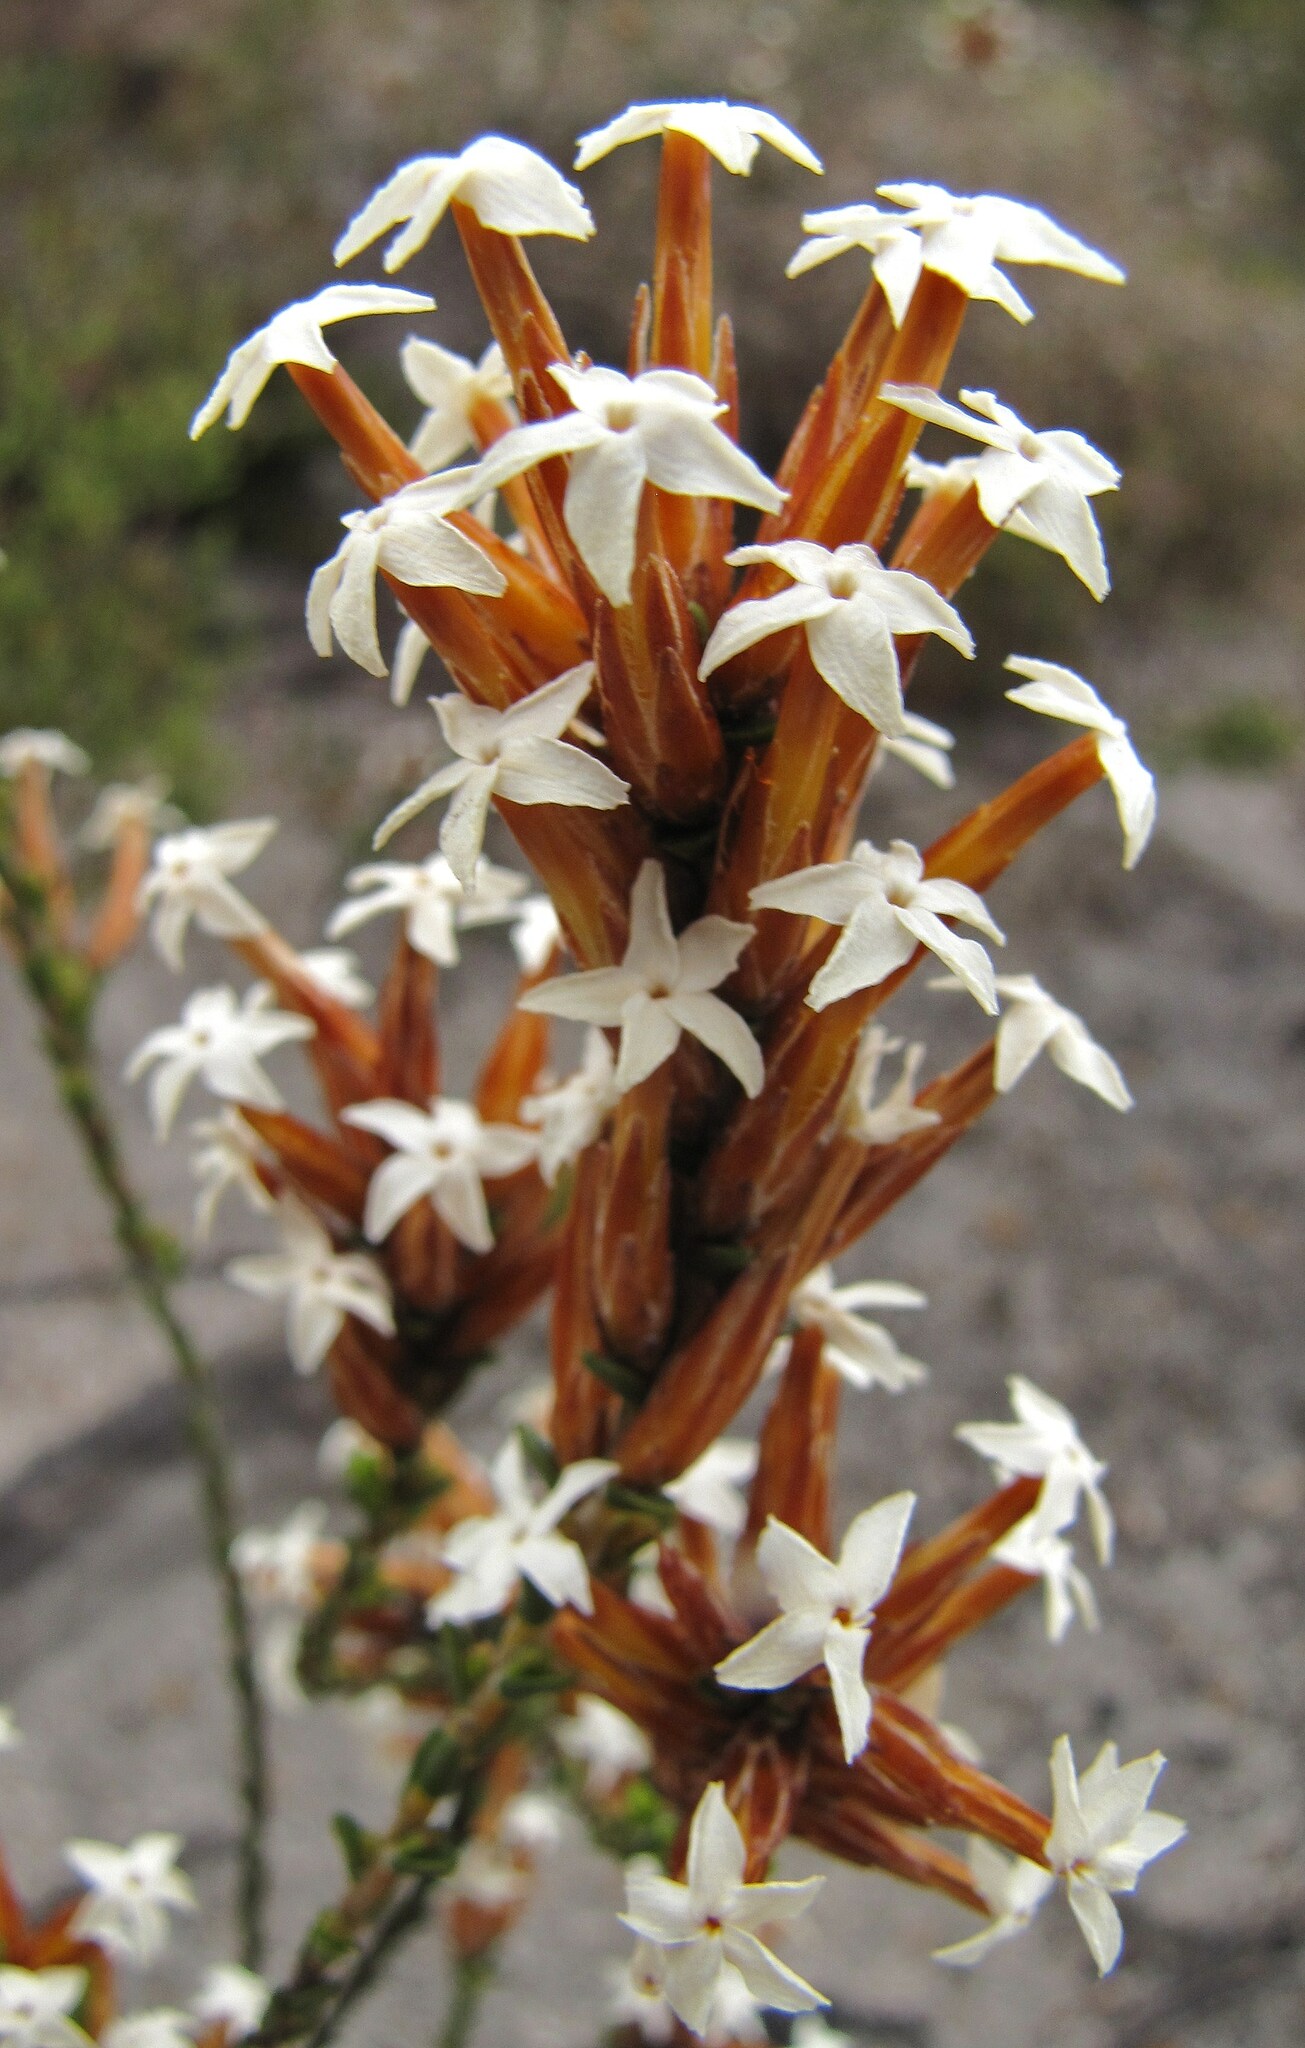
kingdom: Plantae
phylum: Tracheophyta
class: Magnoliopsida
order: Ericales
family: Ericaceae
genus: Lysinema
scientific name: Lysinema ciliatum
